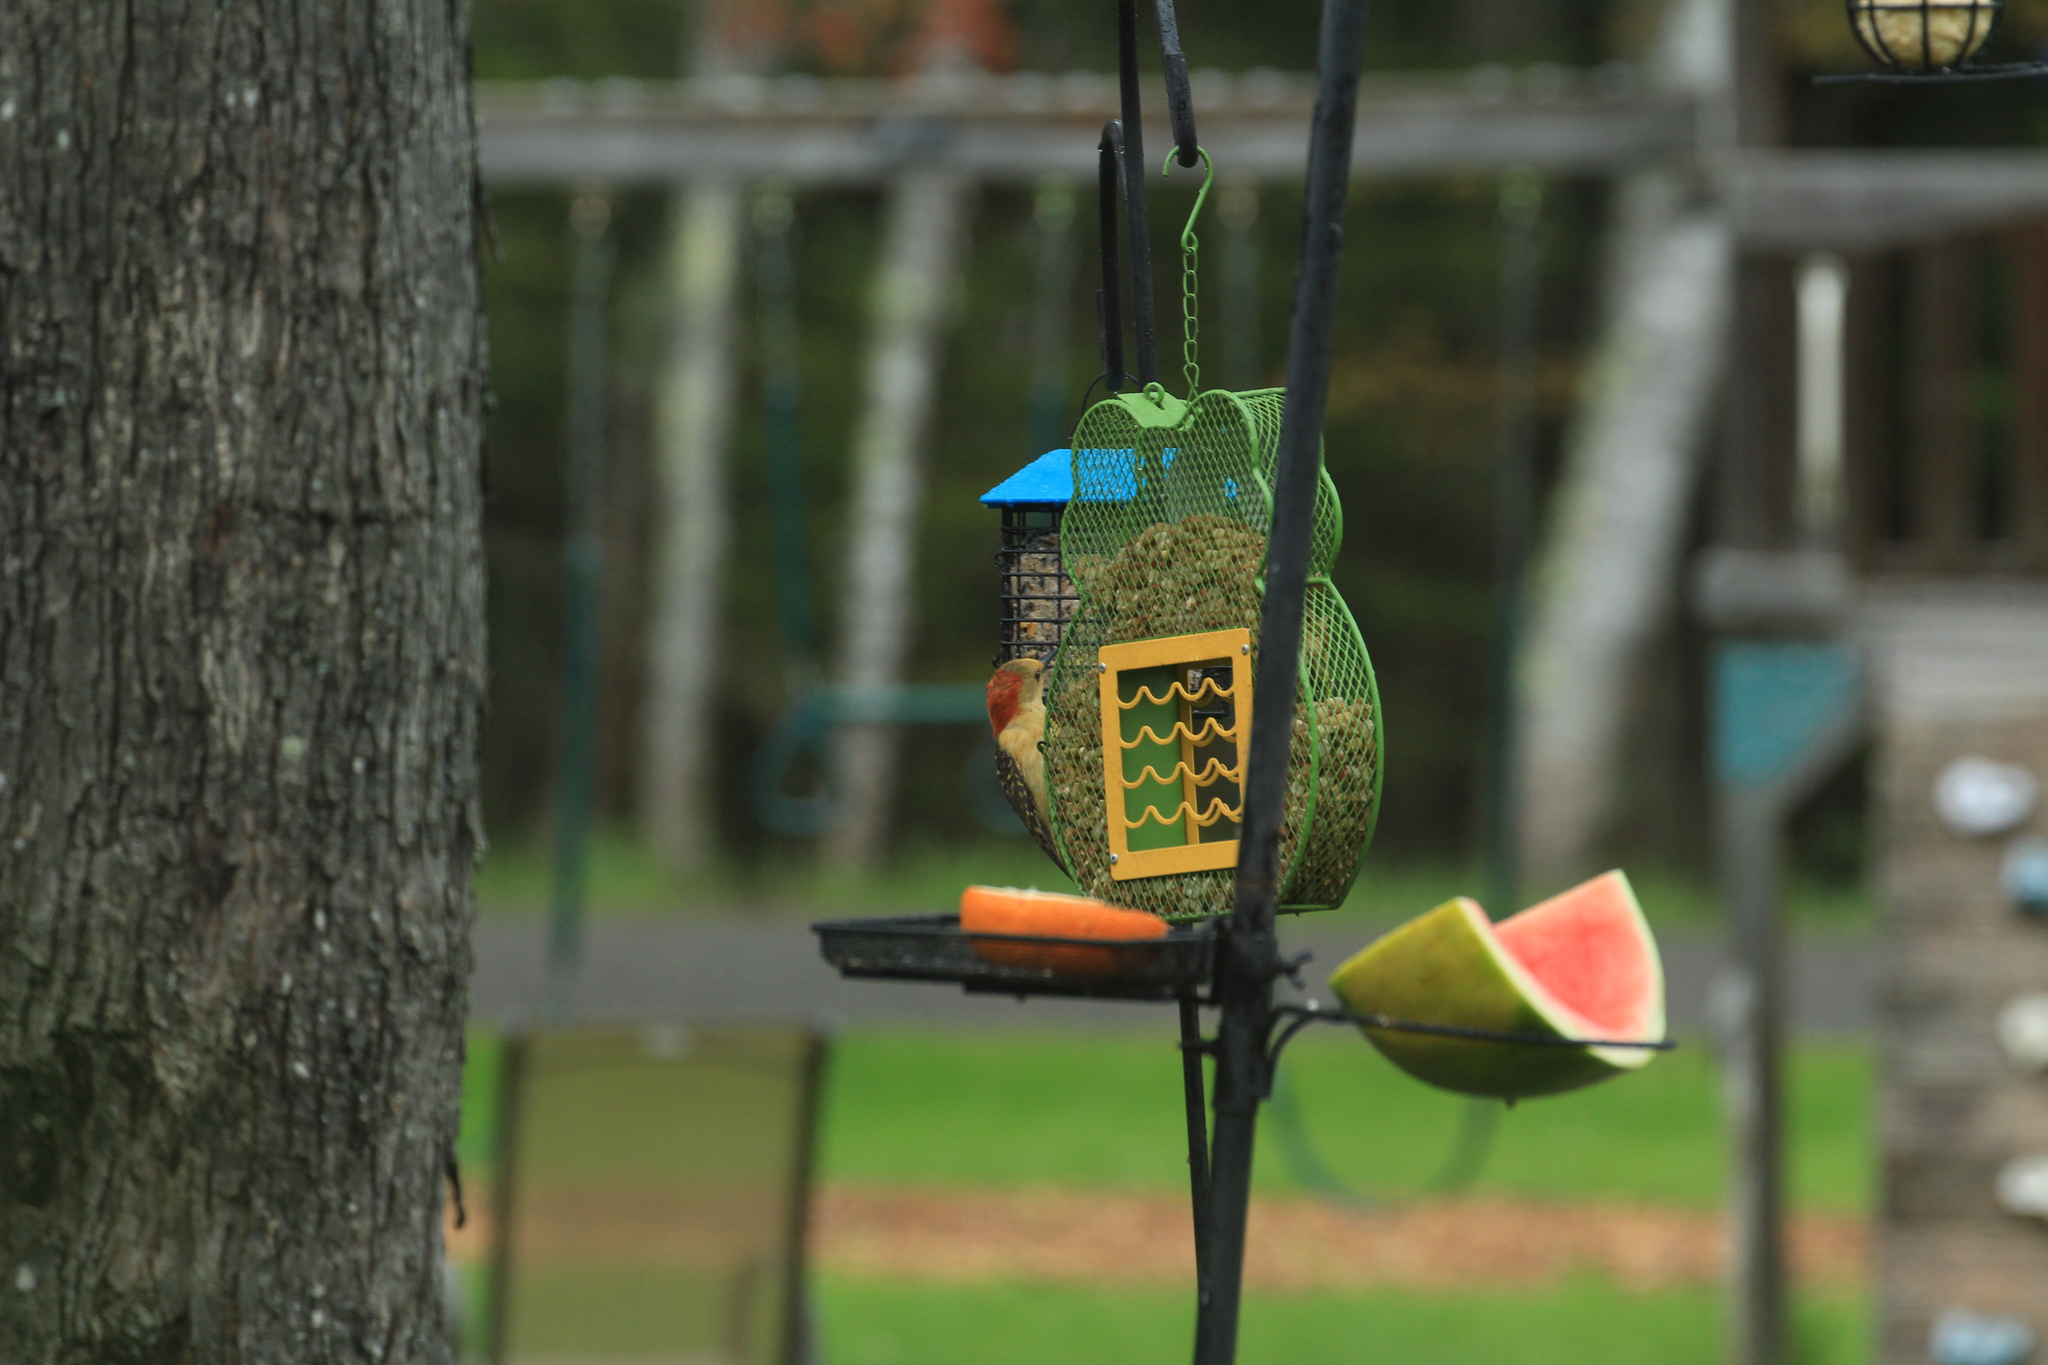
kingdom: Animalia
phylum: Chordata
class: Aves
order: Piciformes
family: Picidae
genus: Melanerpes
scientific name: Melanerpes carolinus
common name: Red-bellied woodpecker
